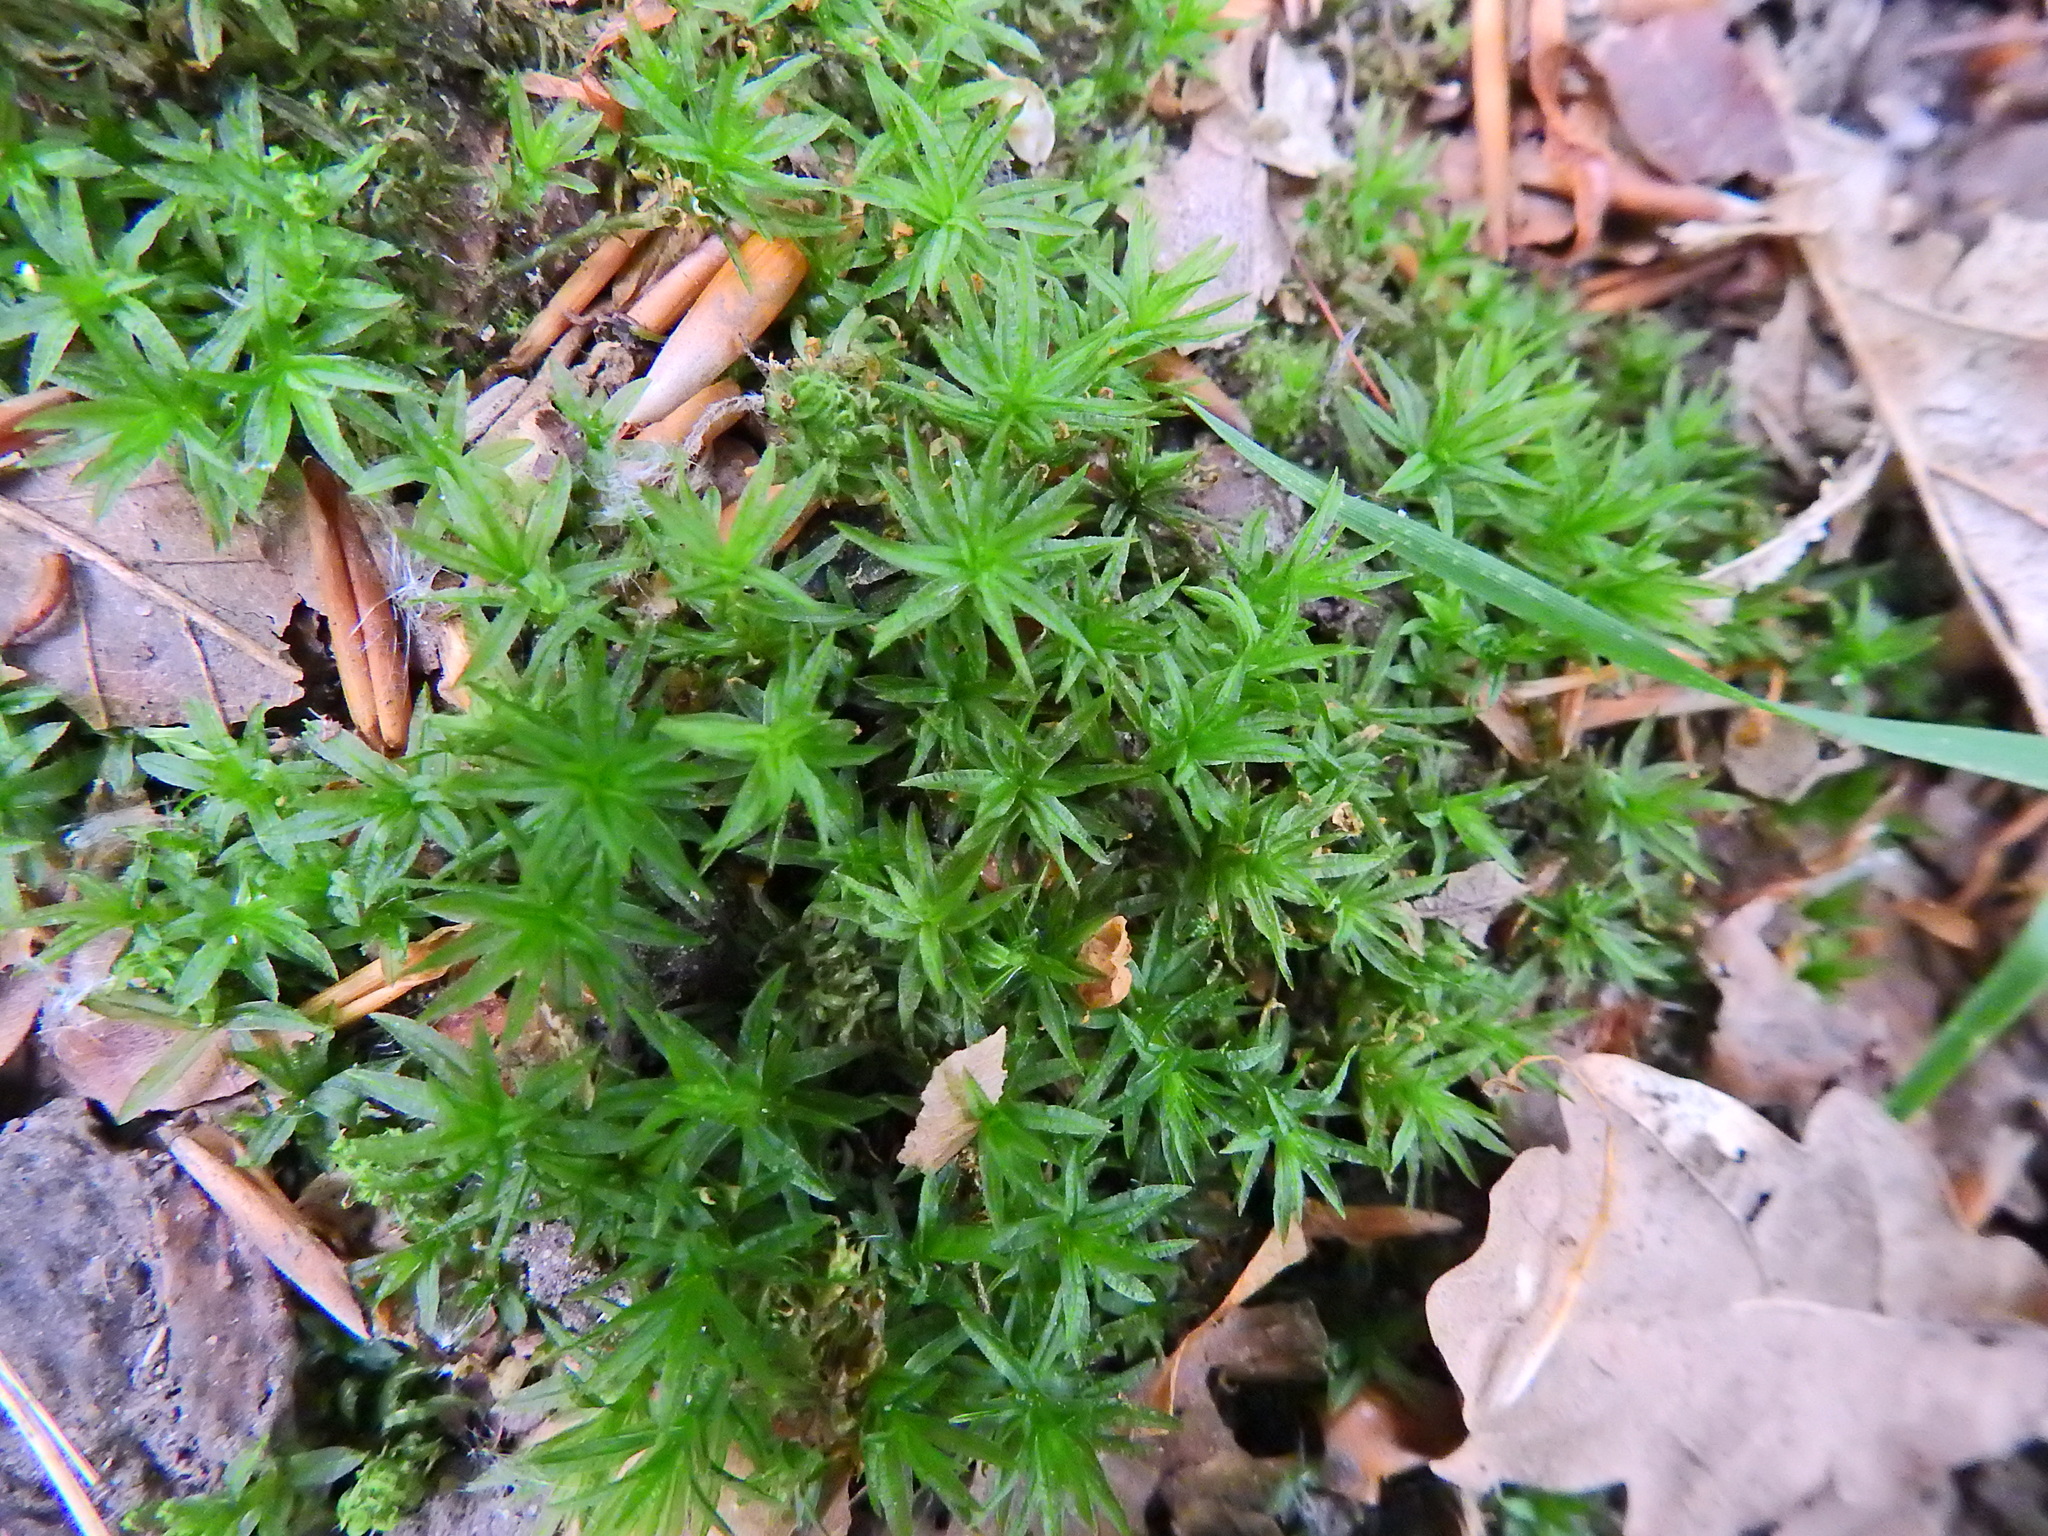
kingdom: Plantae
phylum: Bryophyta
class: Polytrichopsida
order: Polytrichales
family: Polytrichaceae
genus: Atrichum
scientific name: Atrichum undulatum
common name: Common smoothcap
